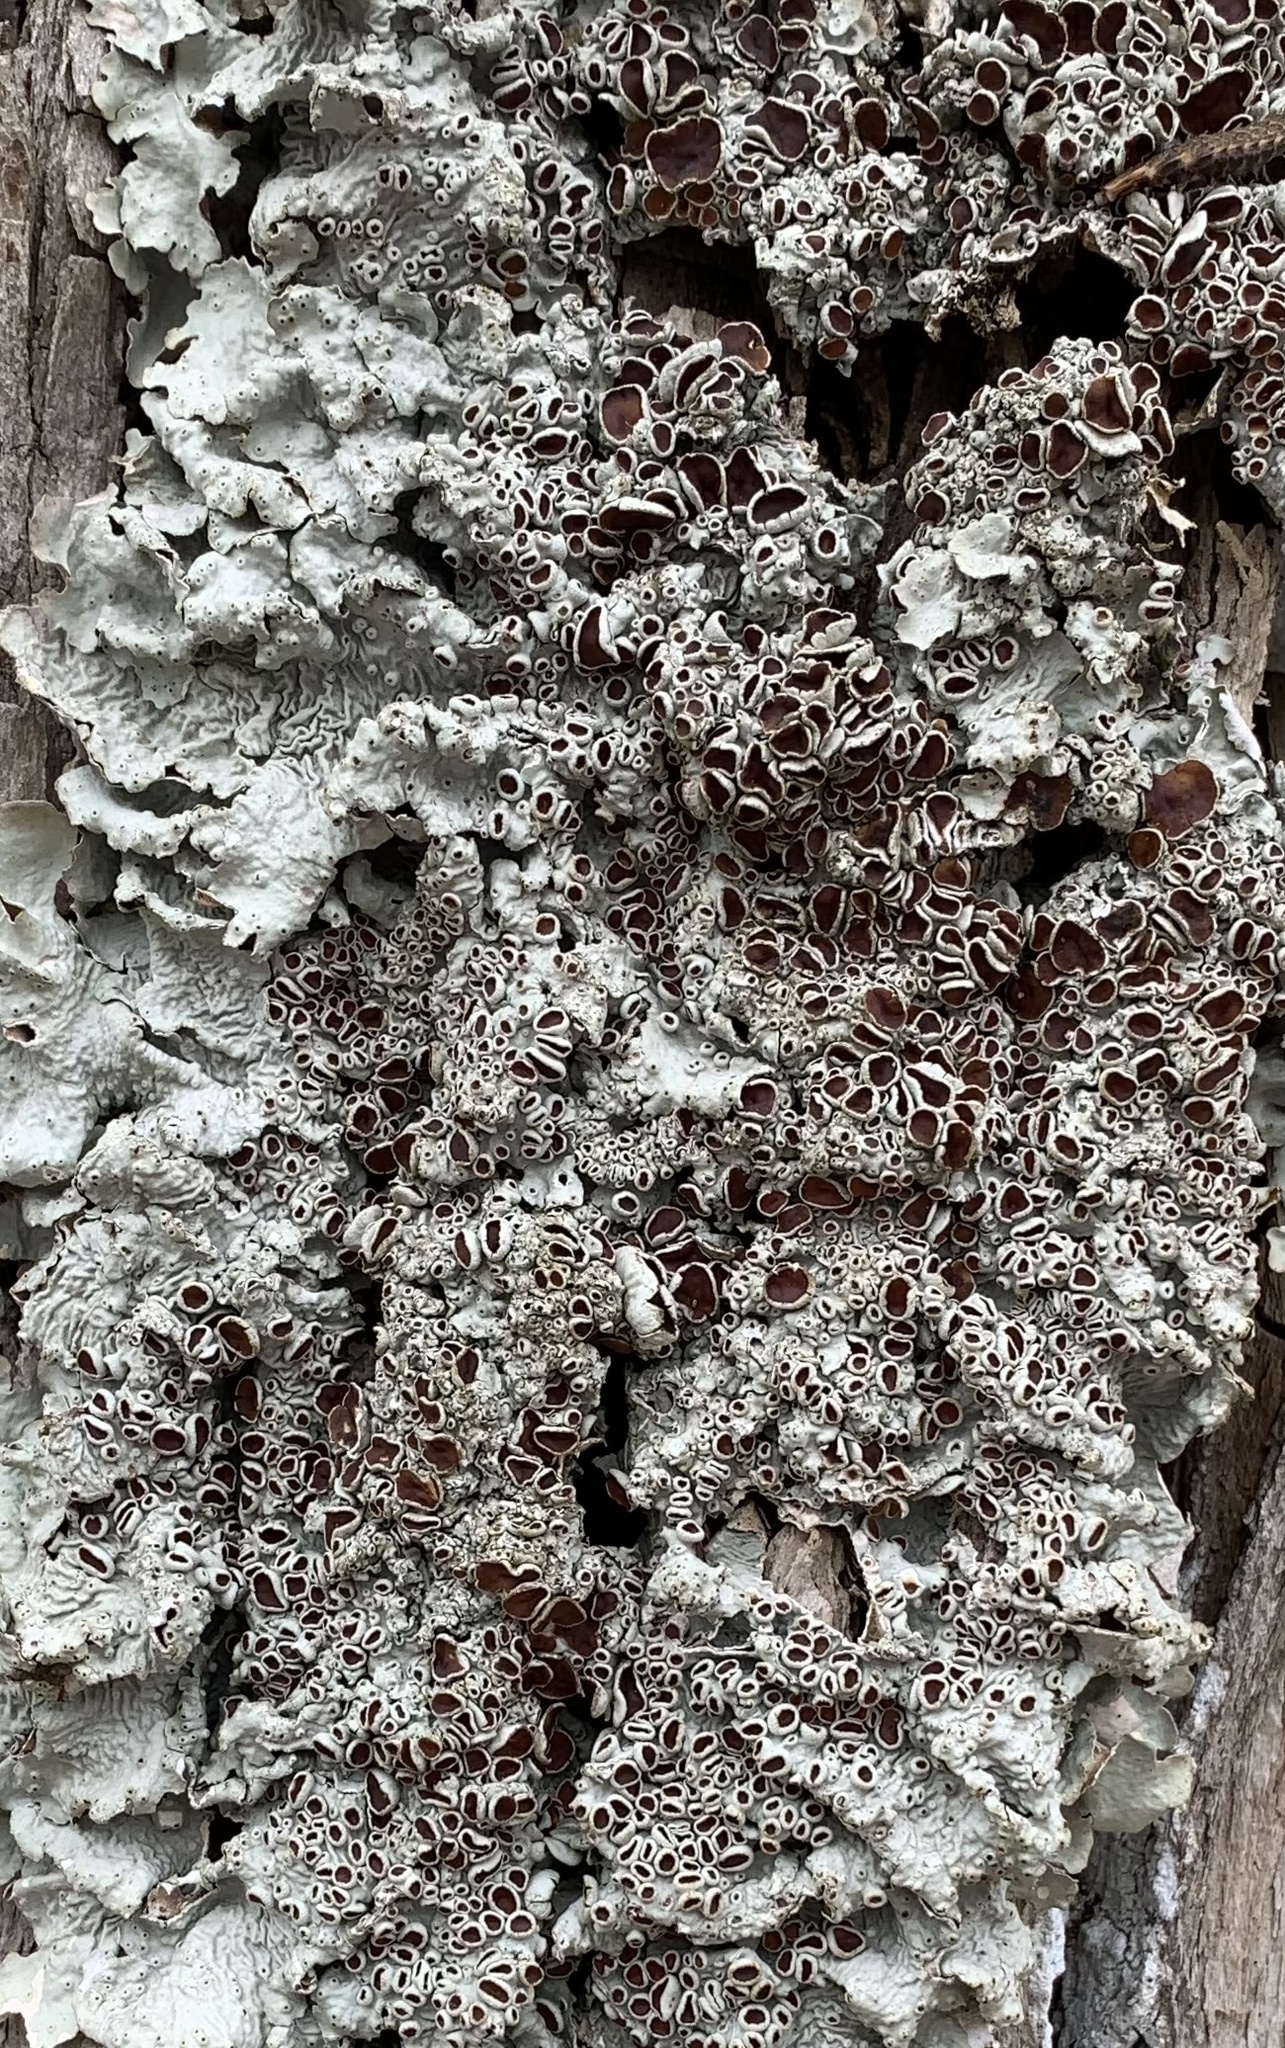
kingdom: Fungi
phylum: Ascomycota
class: Lecanoromycetes
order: Peltigerales
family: Lobariaceae
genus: Ricasolia
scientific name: Ricasolia quercizans
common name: Smooth lungwort
